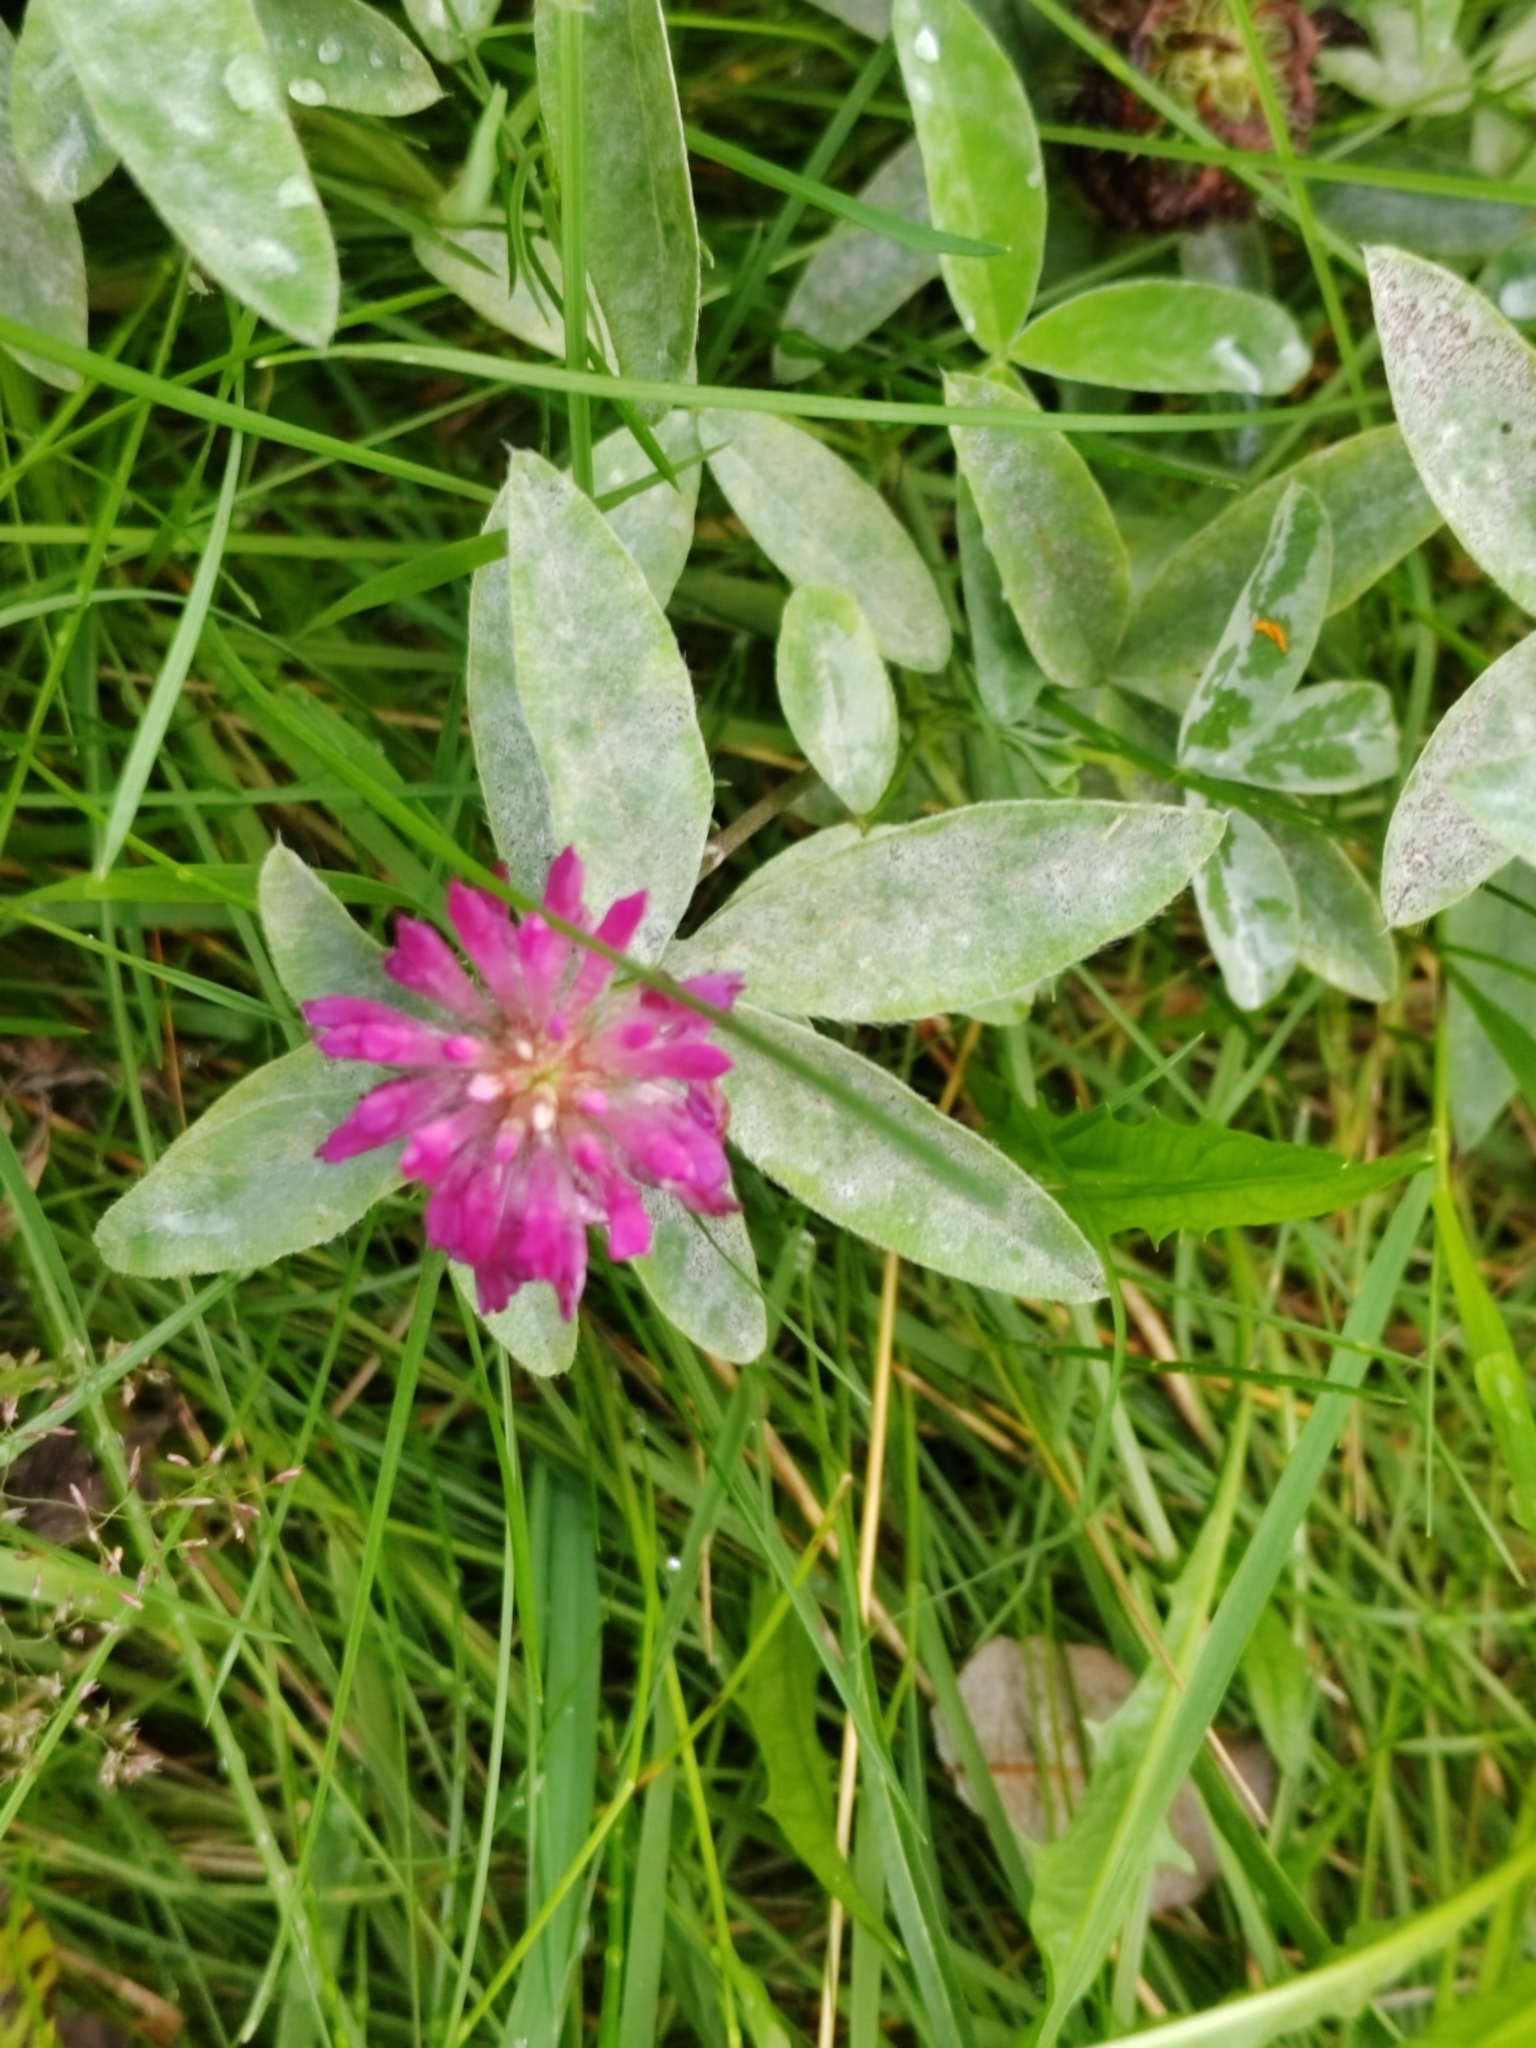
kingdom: Plantae
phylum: Tracheophyta
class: Magnoliopsida
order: Fabales
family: Fabaceae
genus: Trifolium
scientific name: Trifolium medium
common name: Zigzag clover
